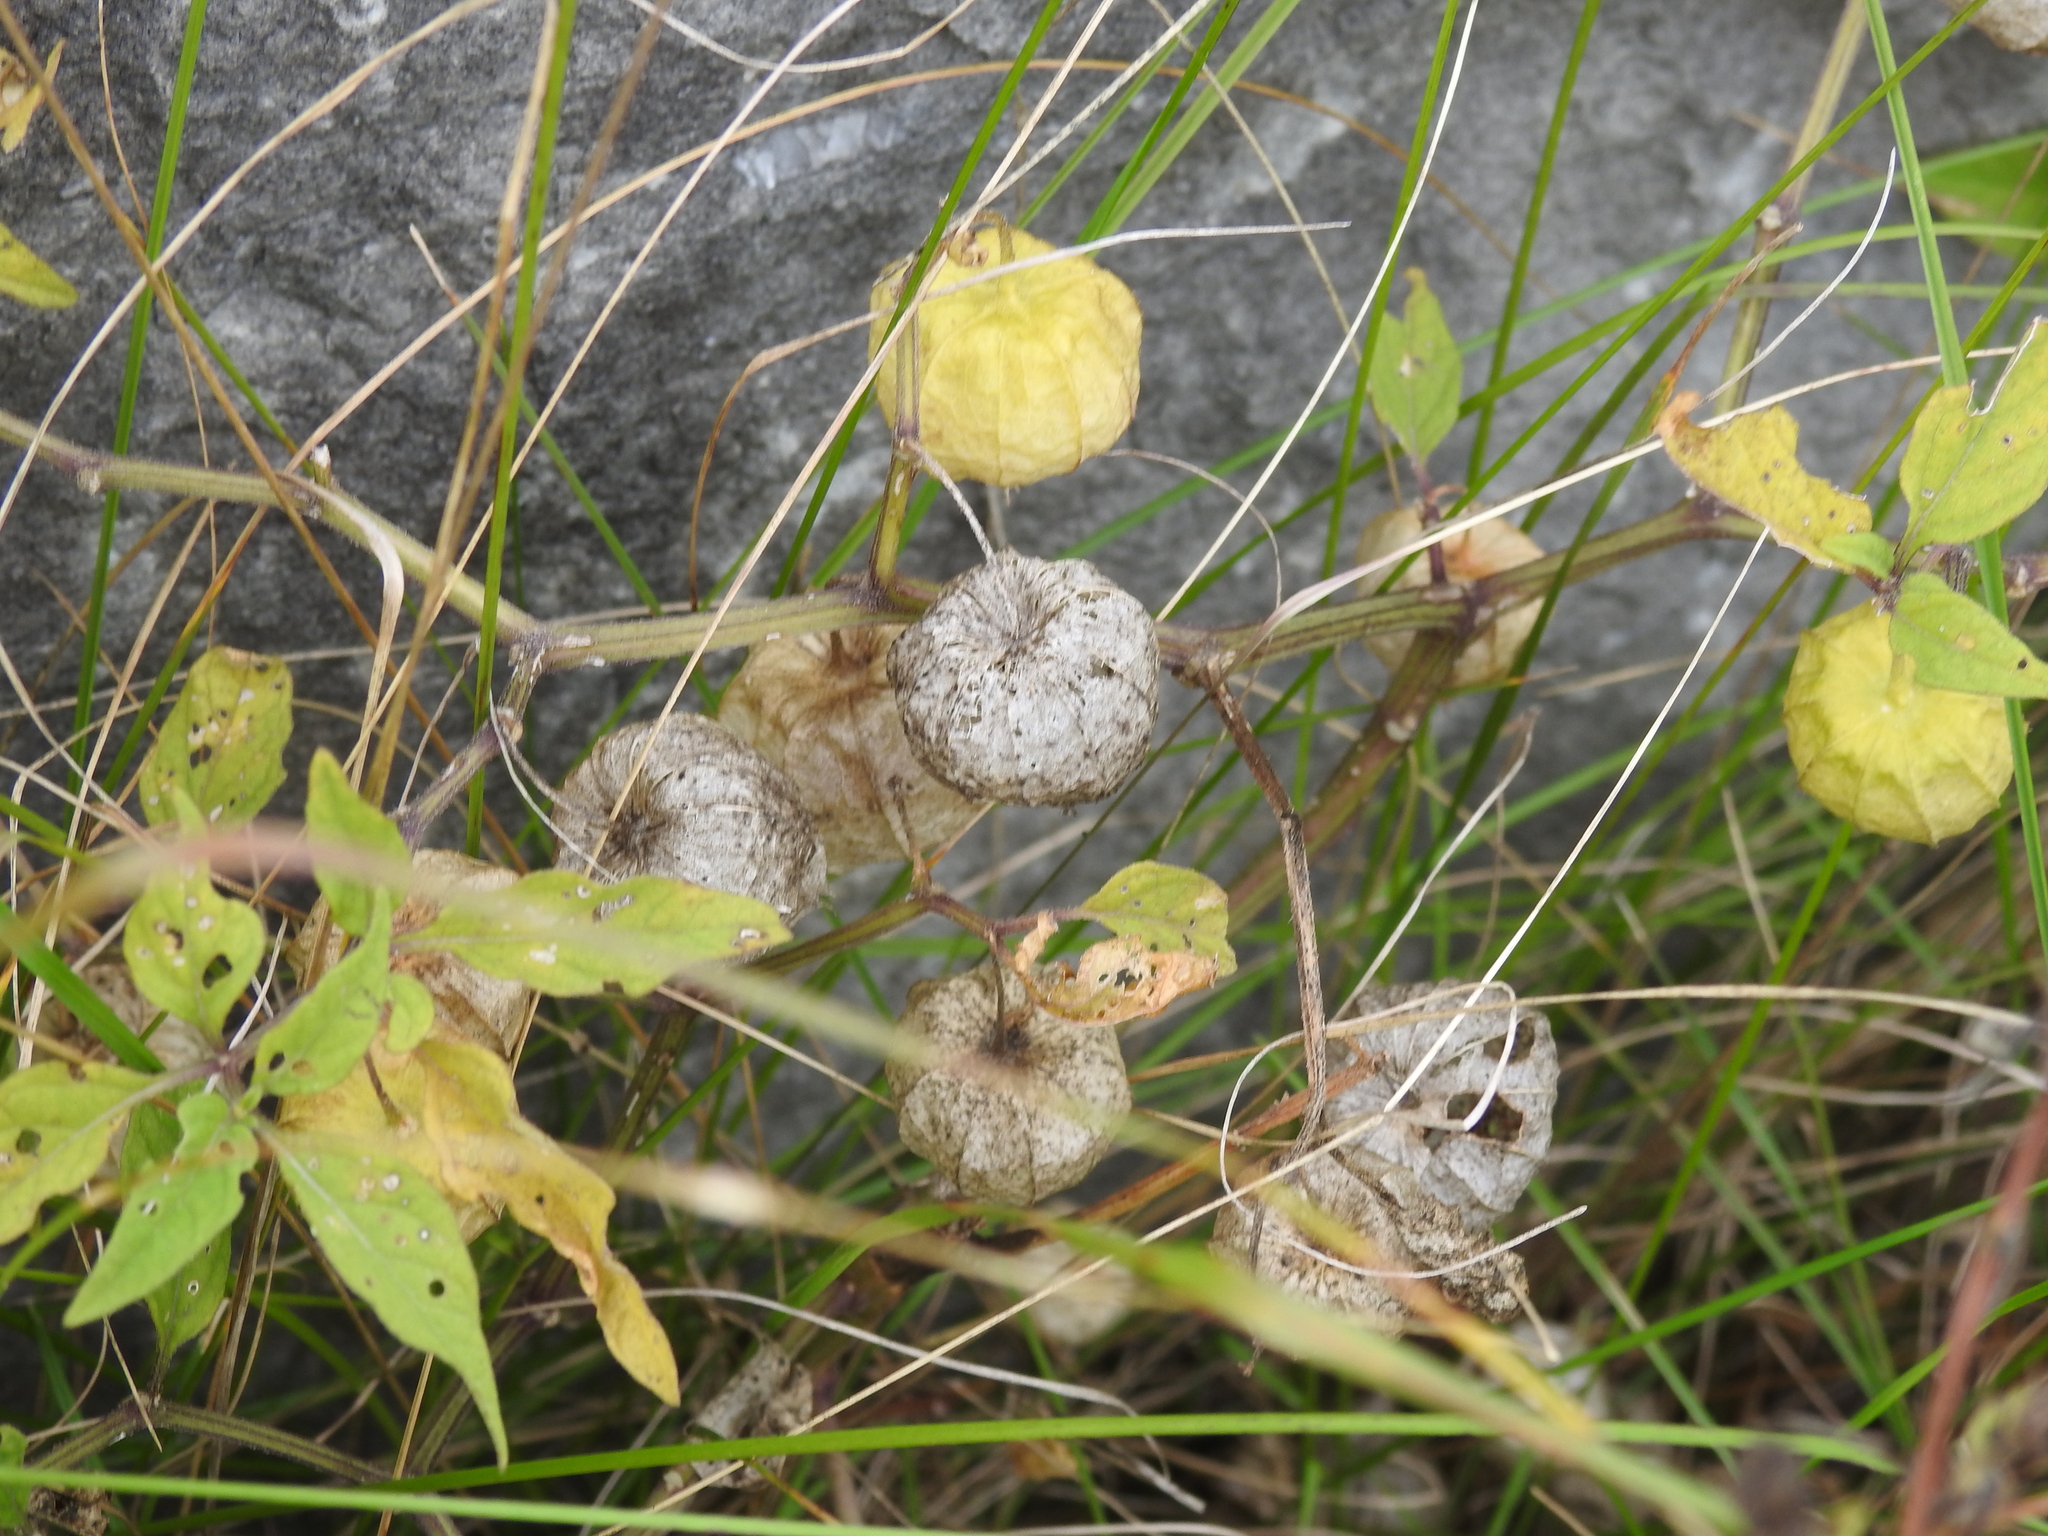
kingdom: Plantae
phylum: Tracheophyta
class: Magnoliopsida
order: Solanales
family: Solanaceae
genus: Physalis
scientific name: Physalis longifolia
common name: Common ground-cherry
